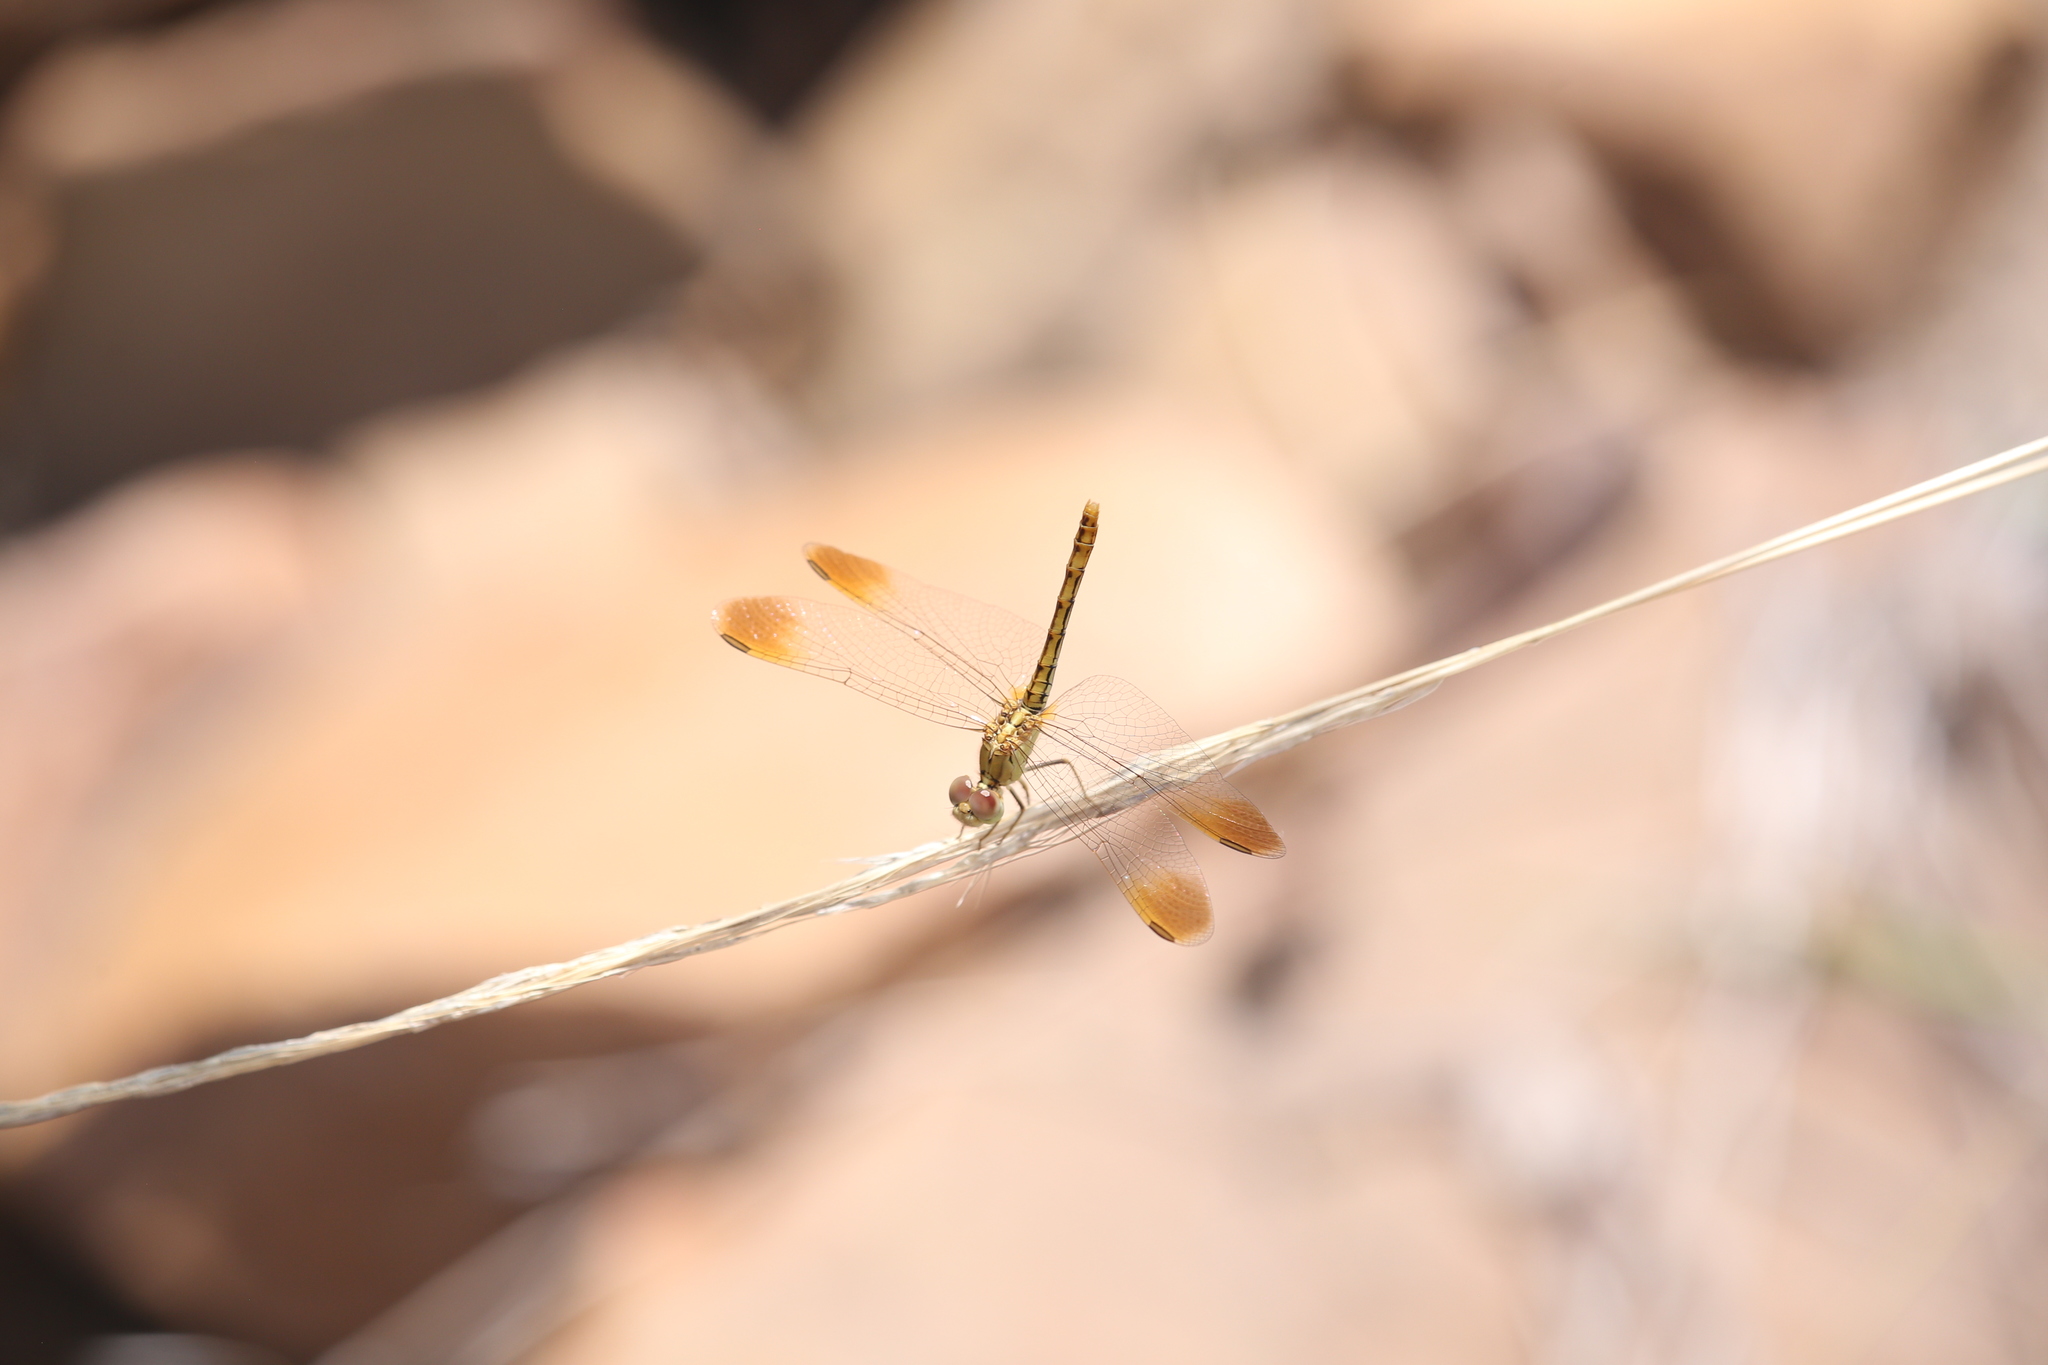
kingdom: Animalia
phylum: Arthropoda
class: Insecta
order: Odonata
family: Libellulidae
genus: Diplacodes
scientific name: Diplacodes haematodes
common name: Scarlet percher
